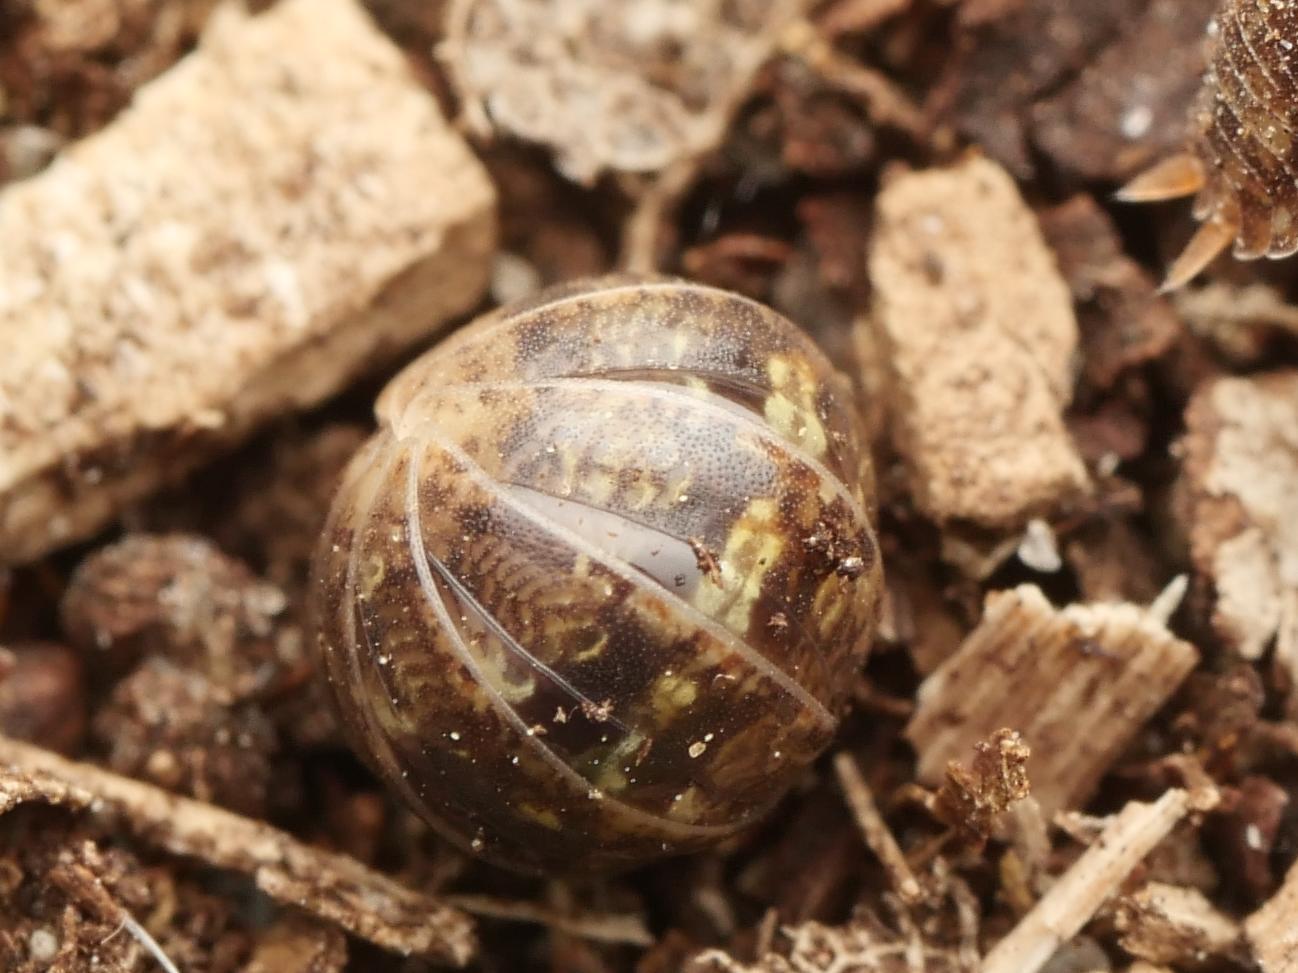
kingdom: Animalia
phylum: Arthropoda
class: Malacostraca
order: Isopoda
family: Armadillidiidae
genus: Armadillidium
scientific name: Armadillidium vulgare
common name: Common pill woodlouse
